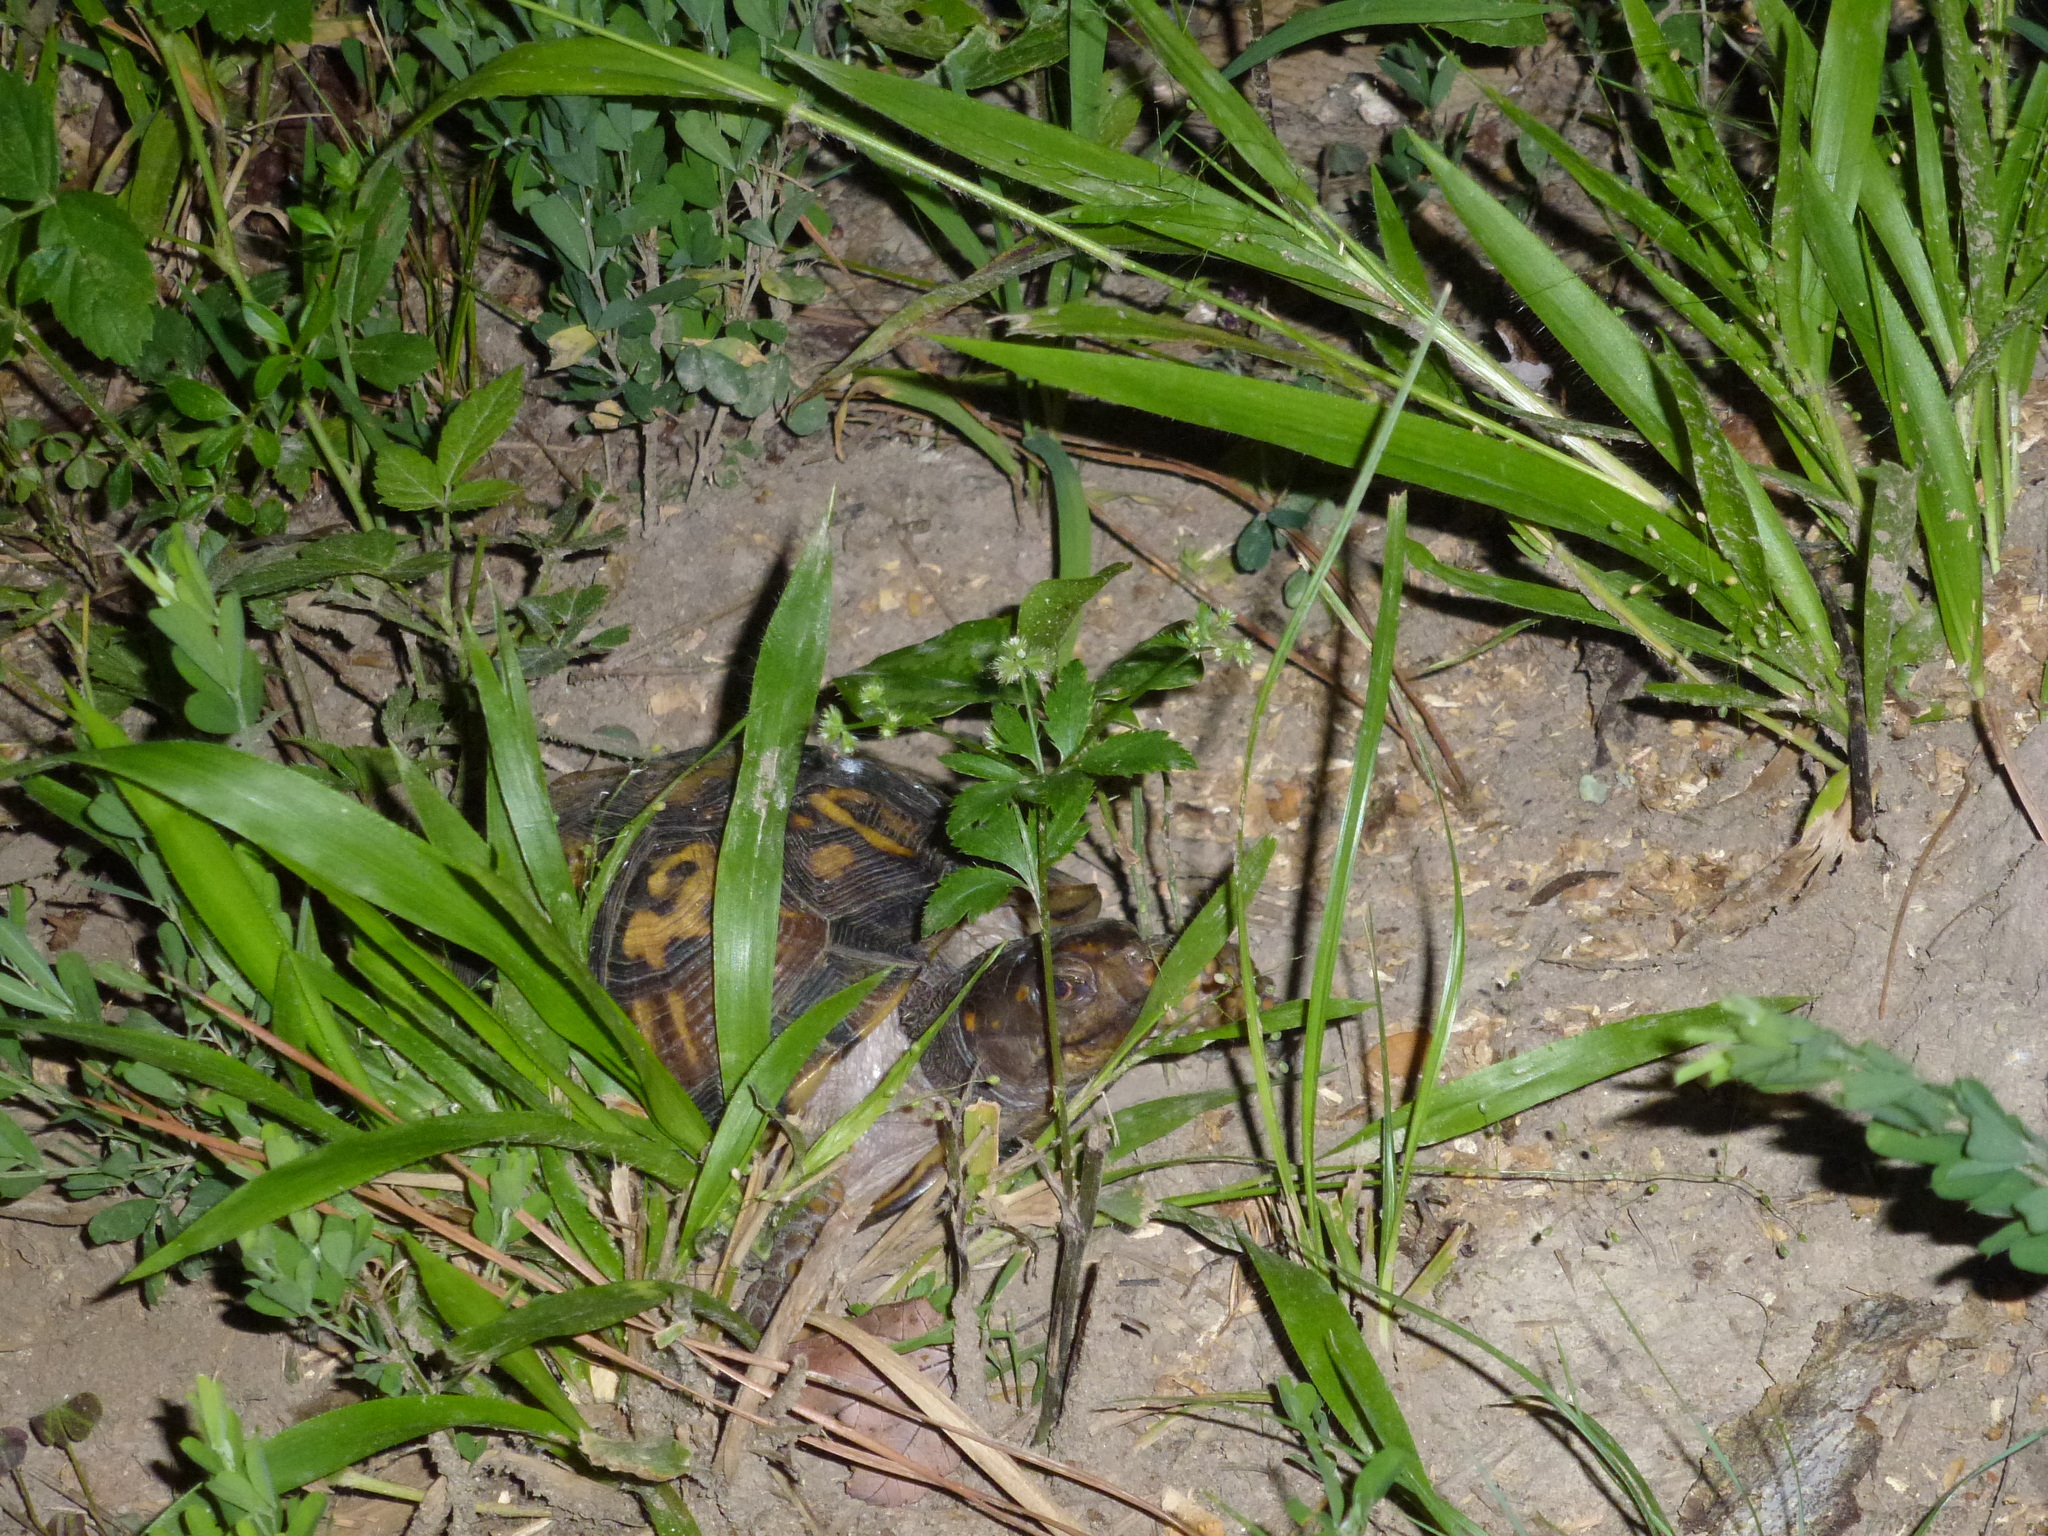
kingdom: Animalia
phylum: Chordata
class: Testudines
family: Emydidae
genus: Terrapene
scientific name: Terrapene carolina
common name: Common box turtle
